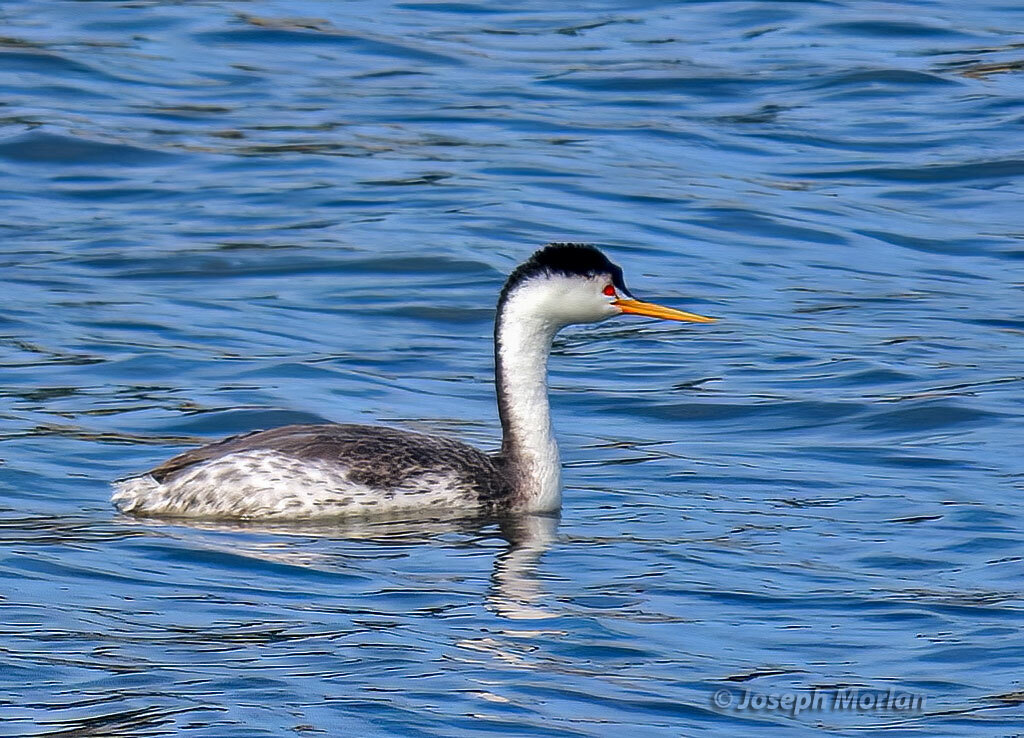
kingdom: Animalia
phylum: Chordata
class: Aves
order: Podicipediformes
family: Podicipedidae
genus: Aechmophorus
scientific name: Aechmophorus clarkii
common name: Clark's grebe
